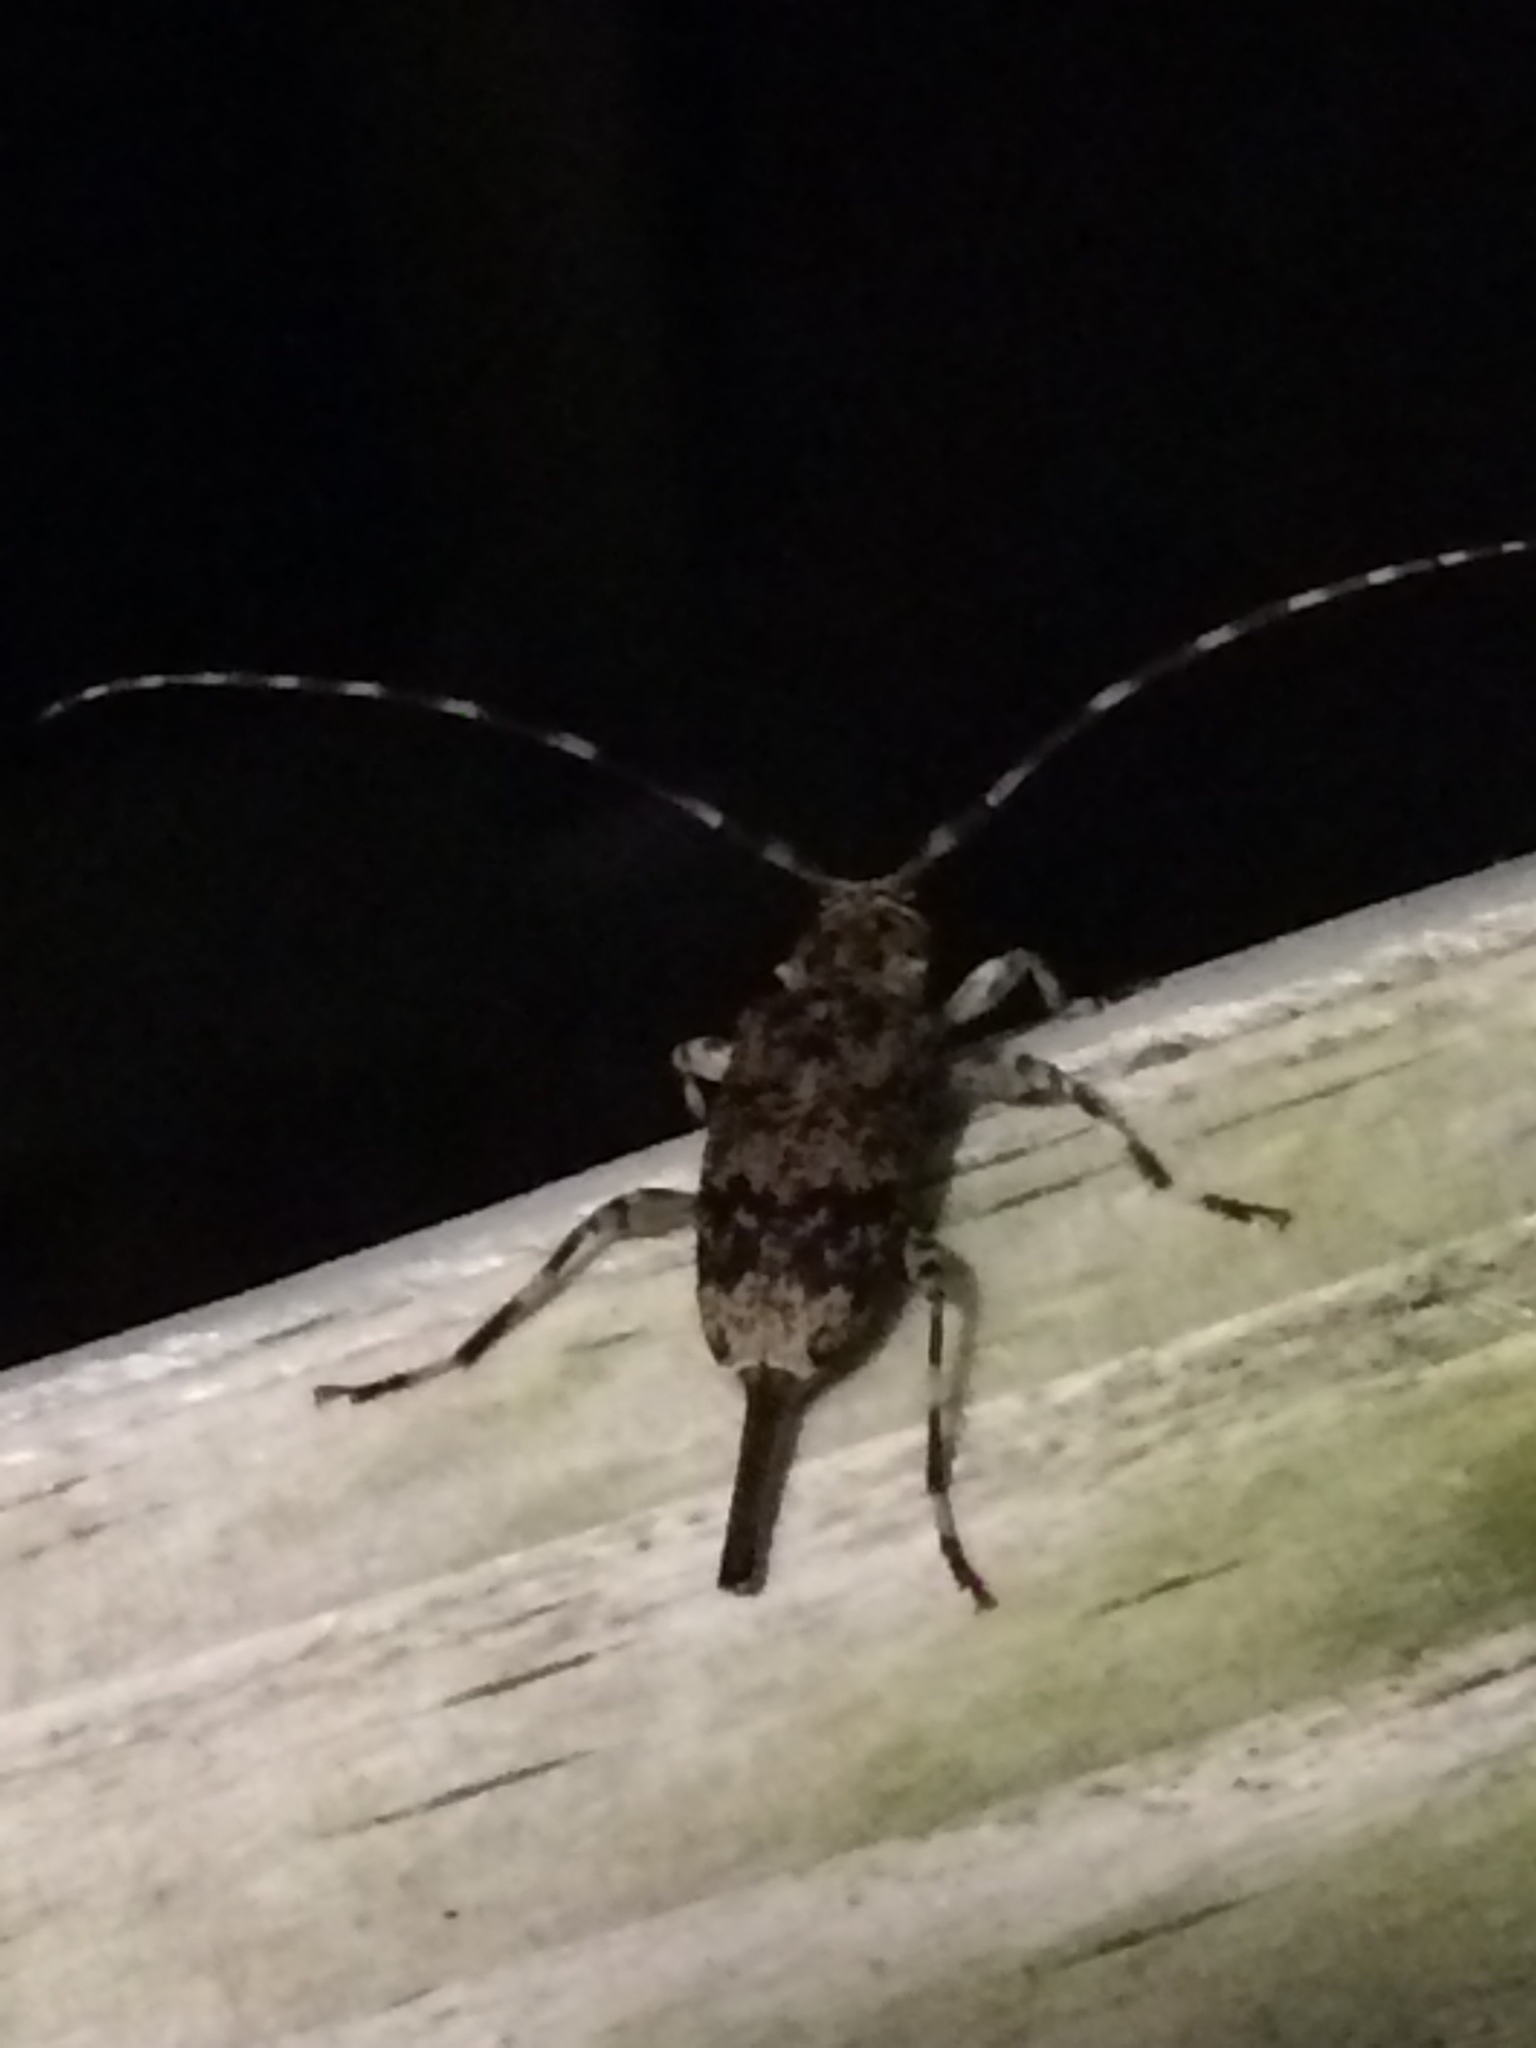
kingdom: Animalia
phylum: Arthropoda
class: Insecta
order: Coleoptera
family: Cerambycidae
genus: Graphisurus
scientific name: Graphisurus fasciatus
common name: Banded graphisurus
